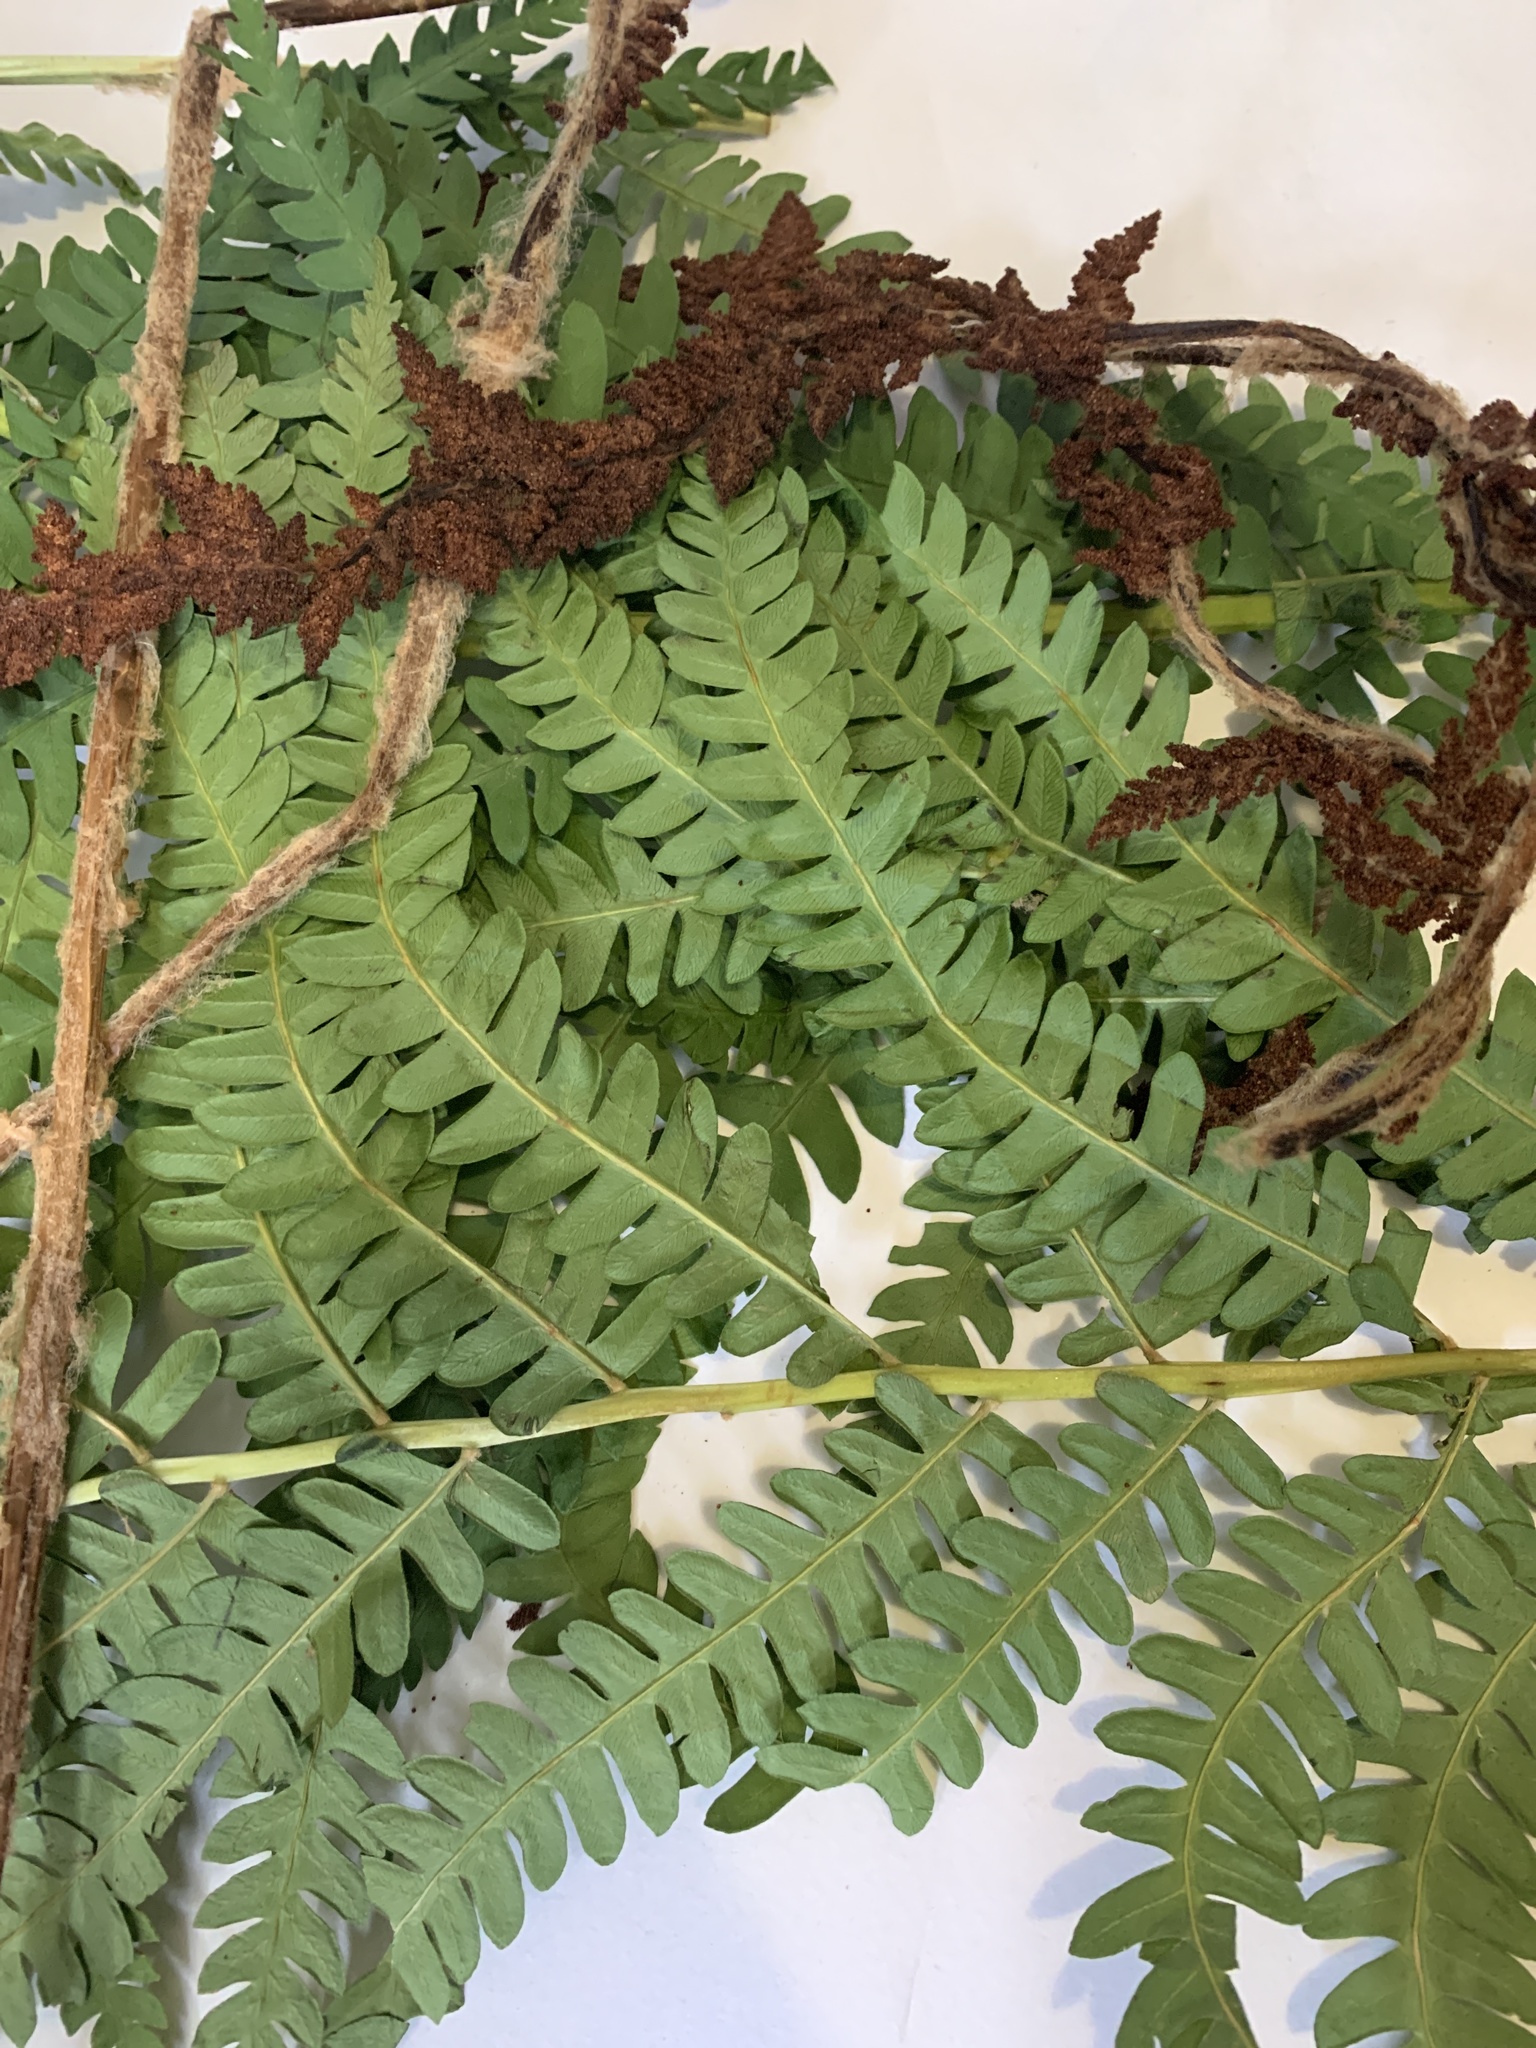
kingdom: Plantae
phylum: Tracheophyta
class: Polypodiopsida
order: Osmundales
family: Osmundaceae
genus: Osmundastrum
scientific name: Osmundastrum cinnamomeum
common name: Cinnamon fern
